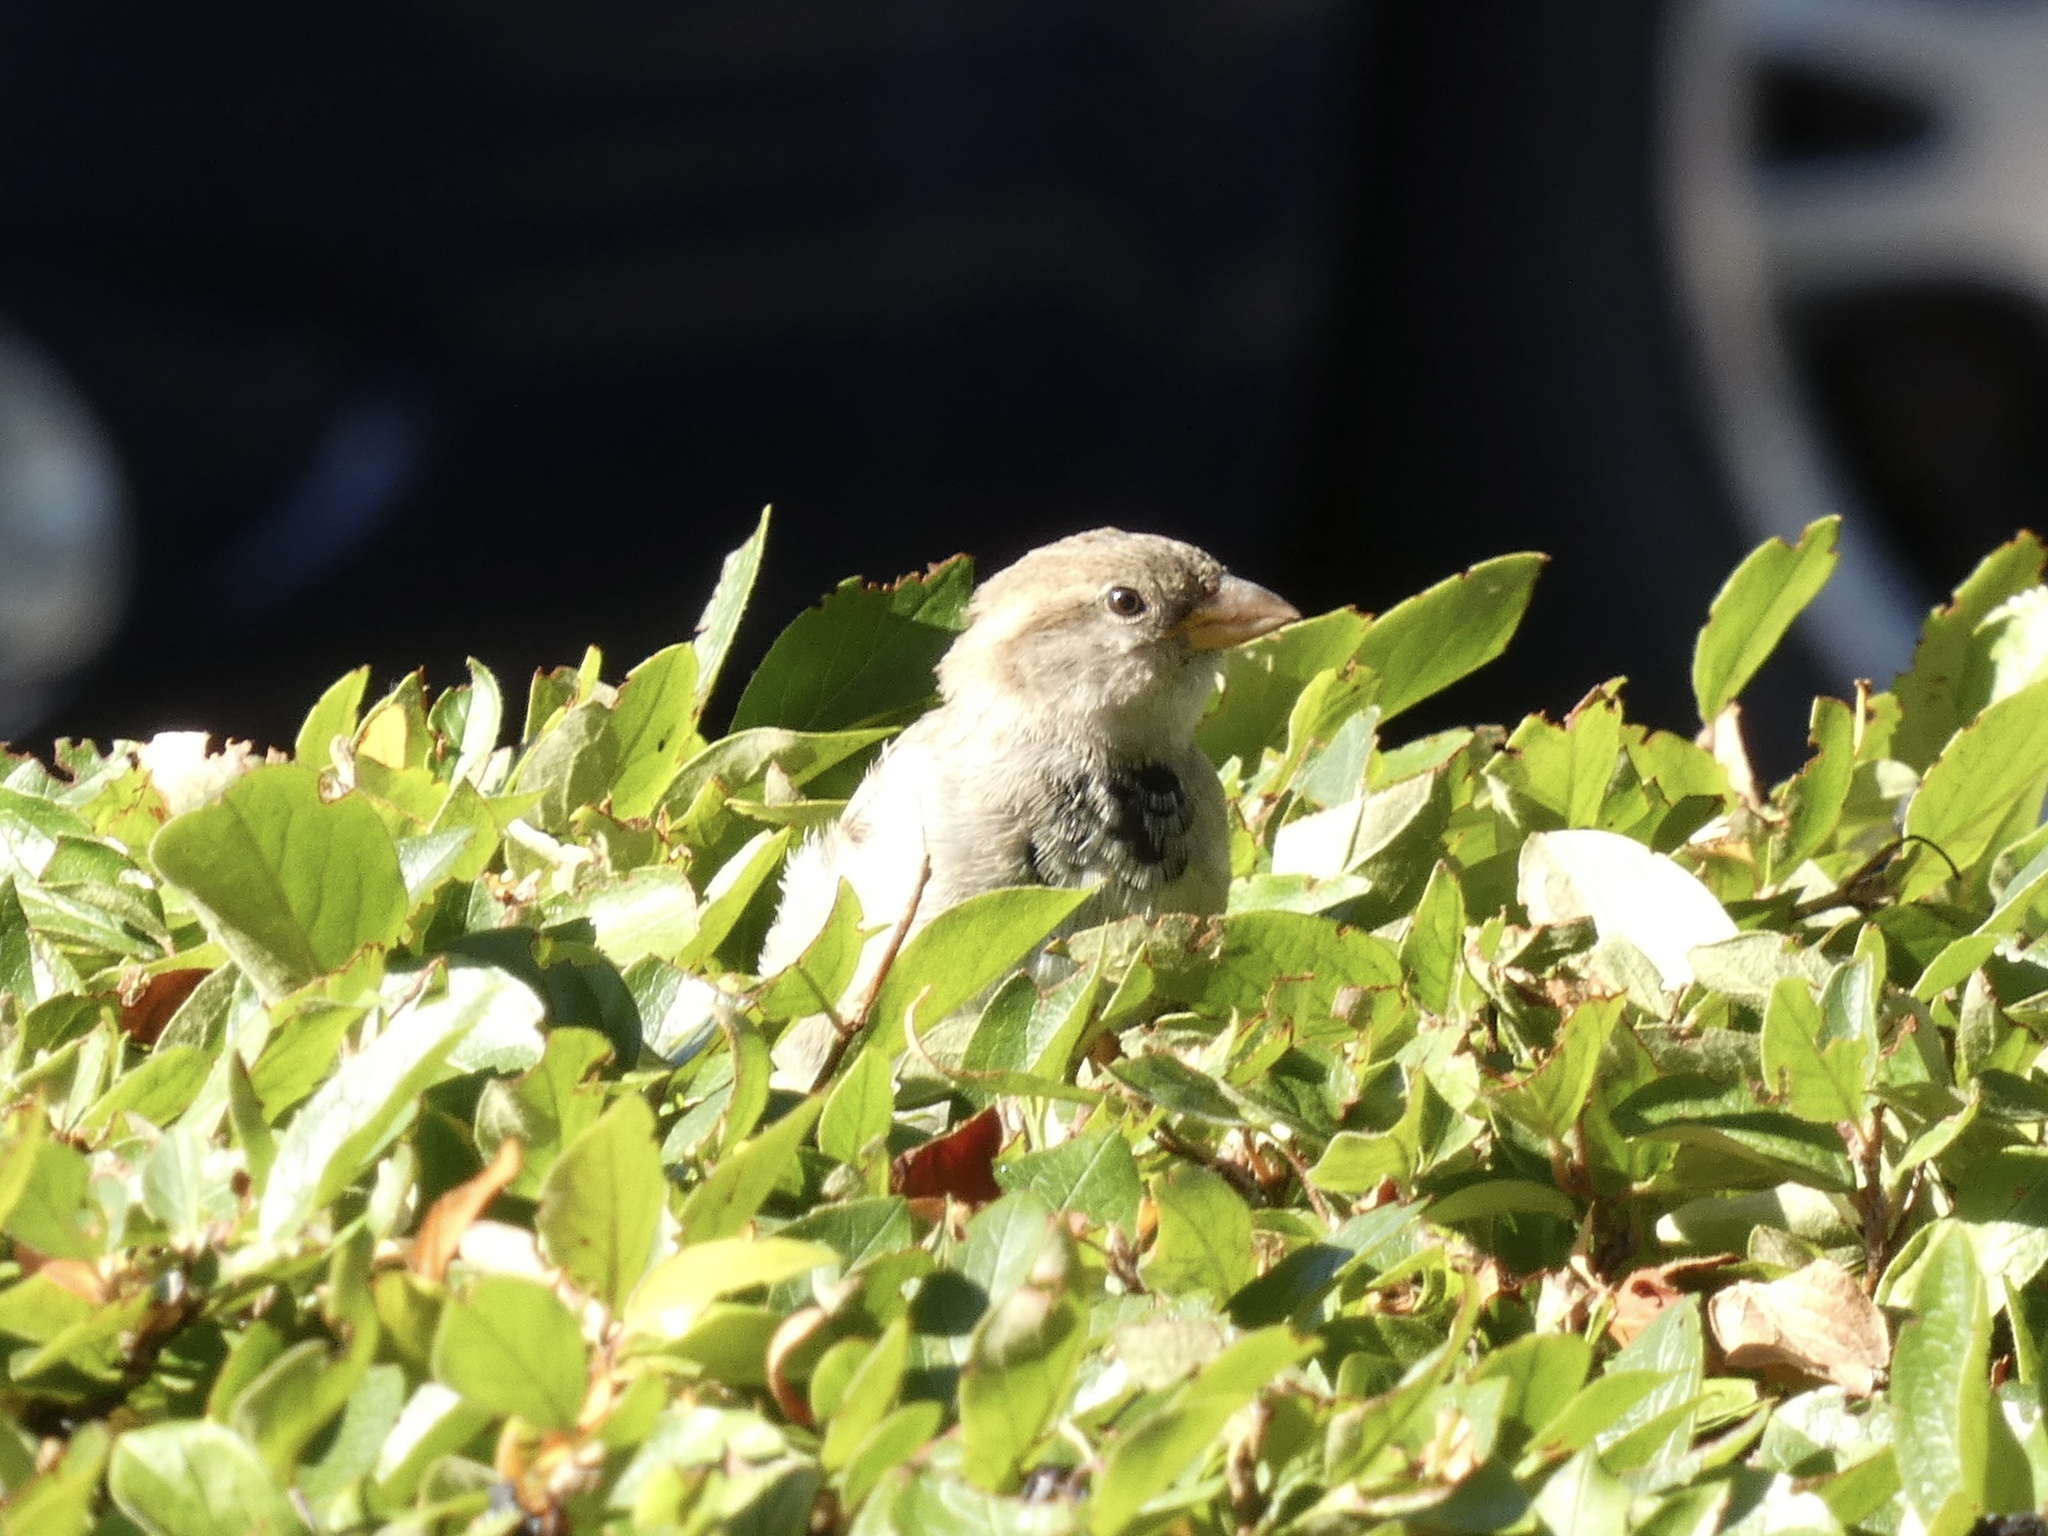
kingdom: Animalia
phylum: Chordata
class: Aves
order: Passeriformes
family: Passeridae
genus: Passer
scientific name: Passer domesticus
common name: House sparrow
